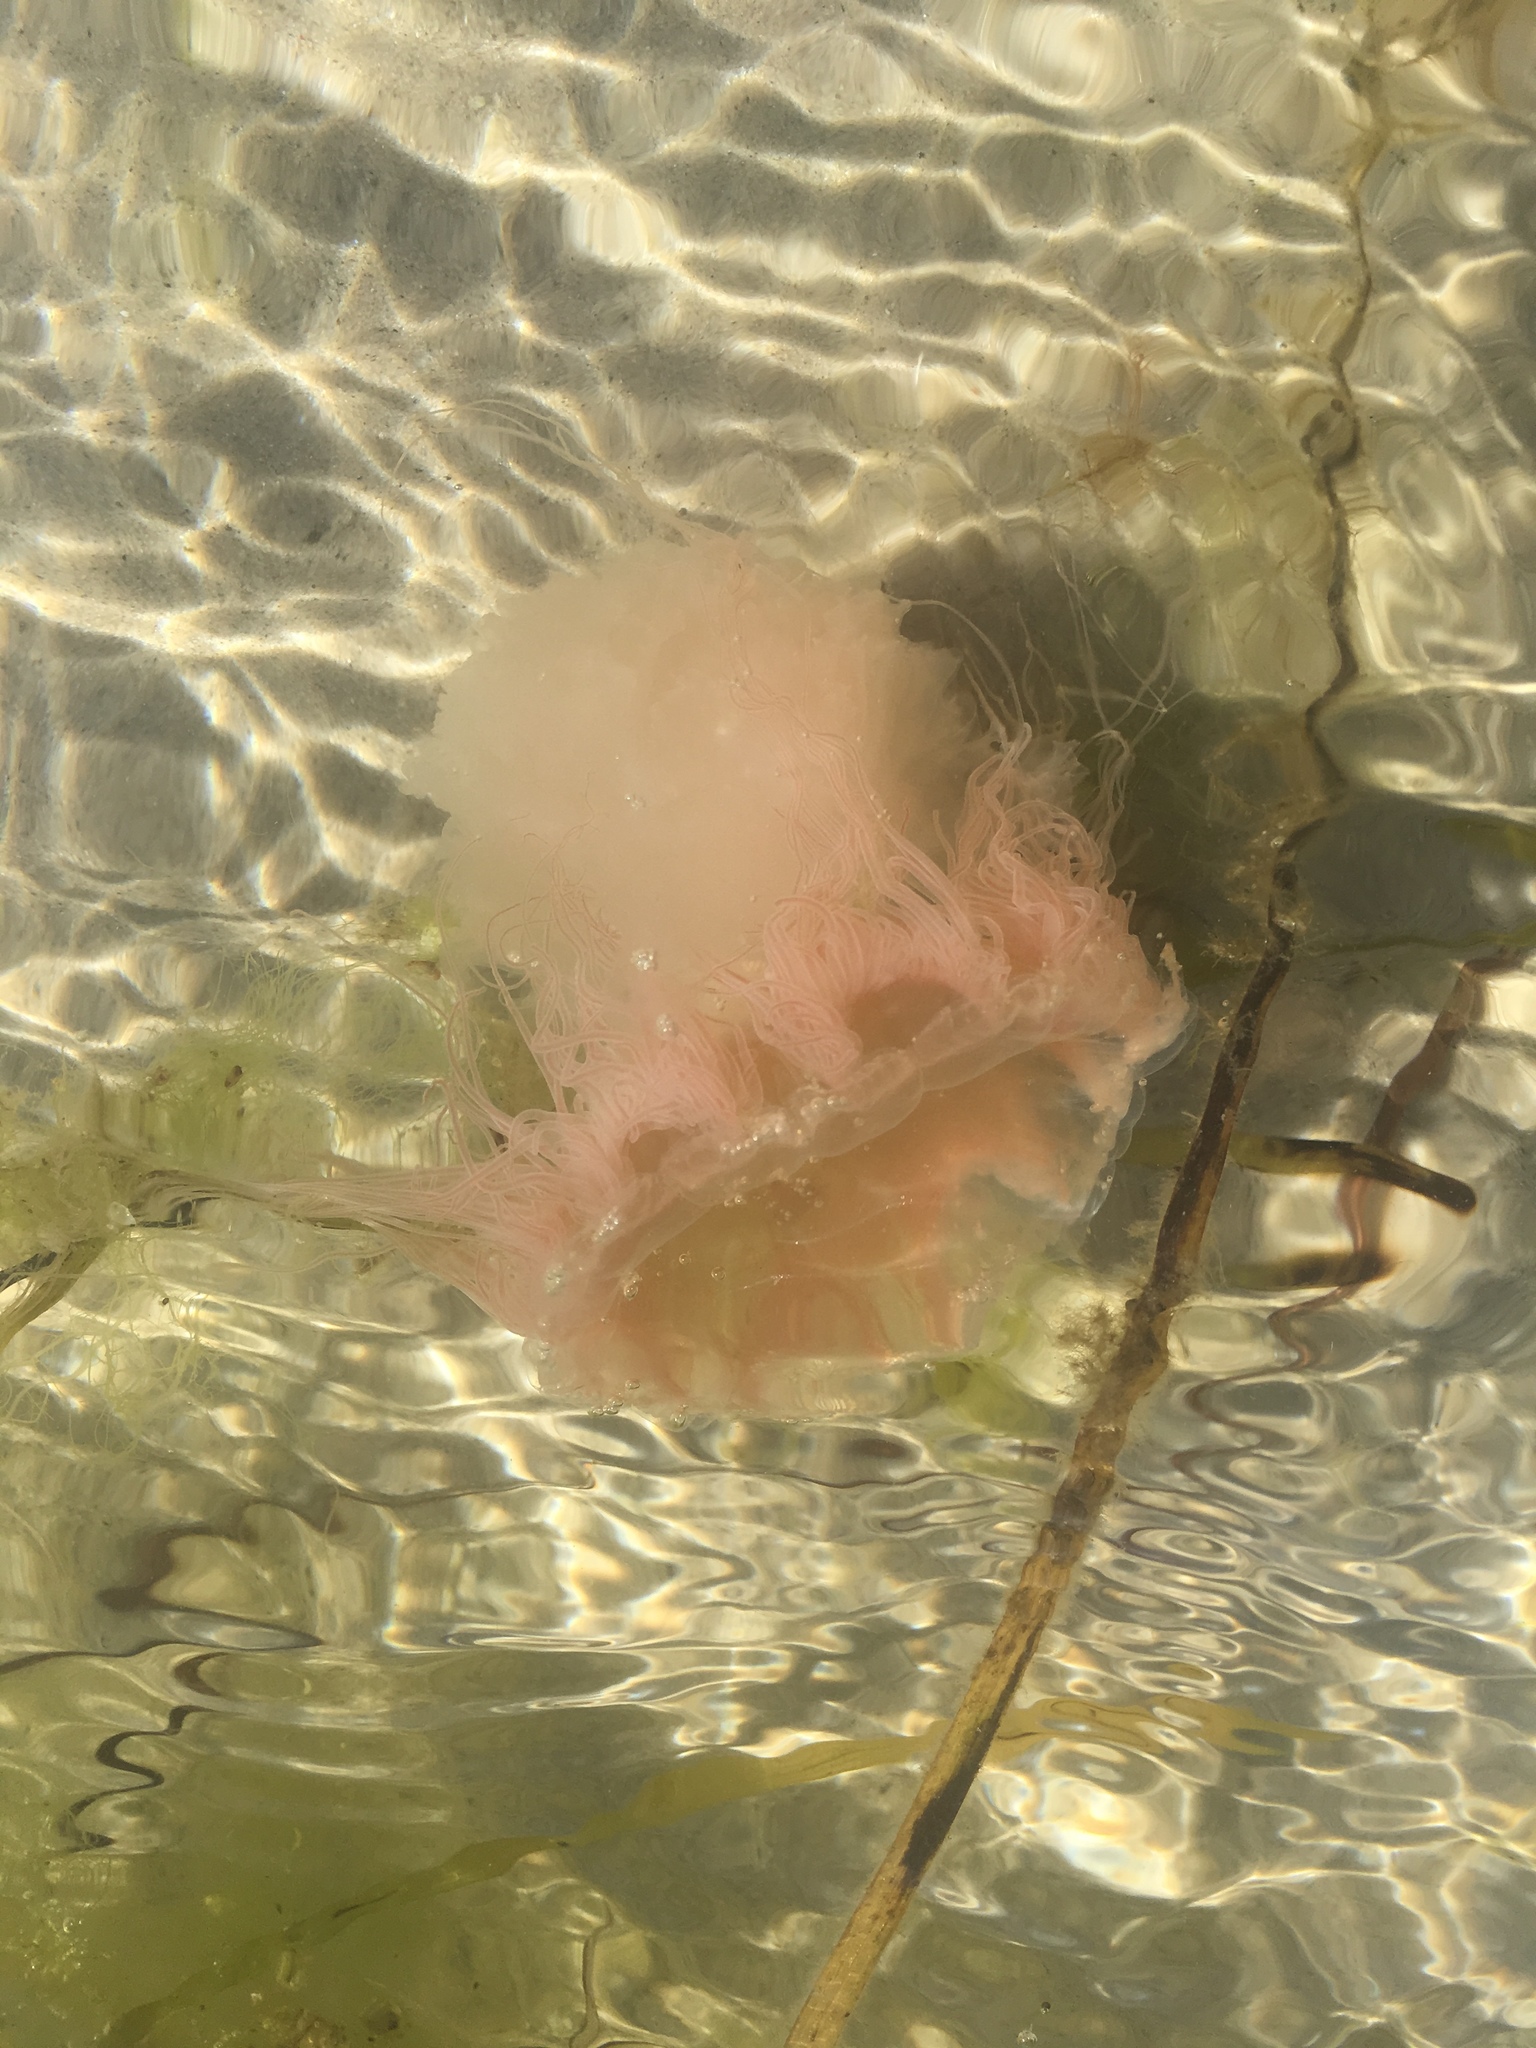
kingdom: Animalia
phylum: Cnidaria
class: Scyphozoa
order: Semaeostomeae
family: Cyaneidae
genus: Cyanea
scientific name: Cyanea capillata
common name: Lion's mane jellyfish
